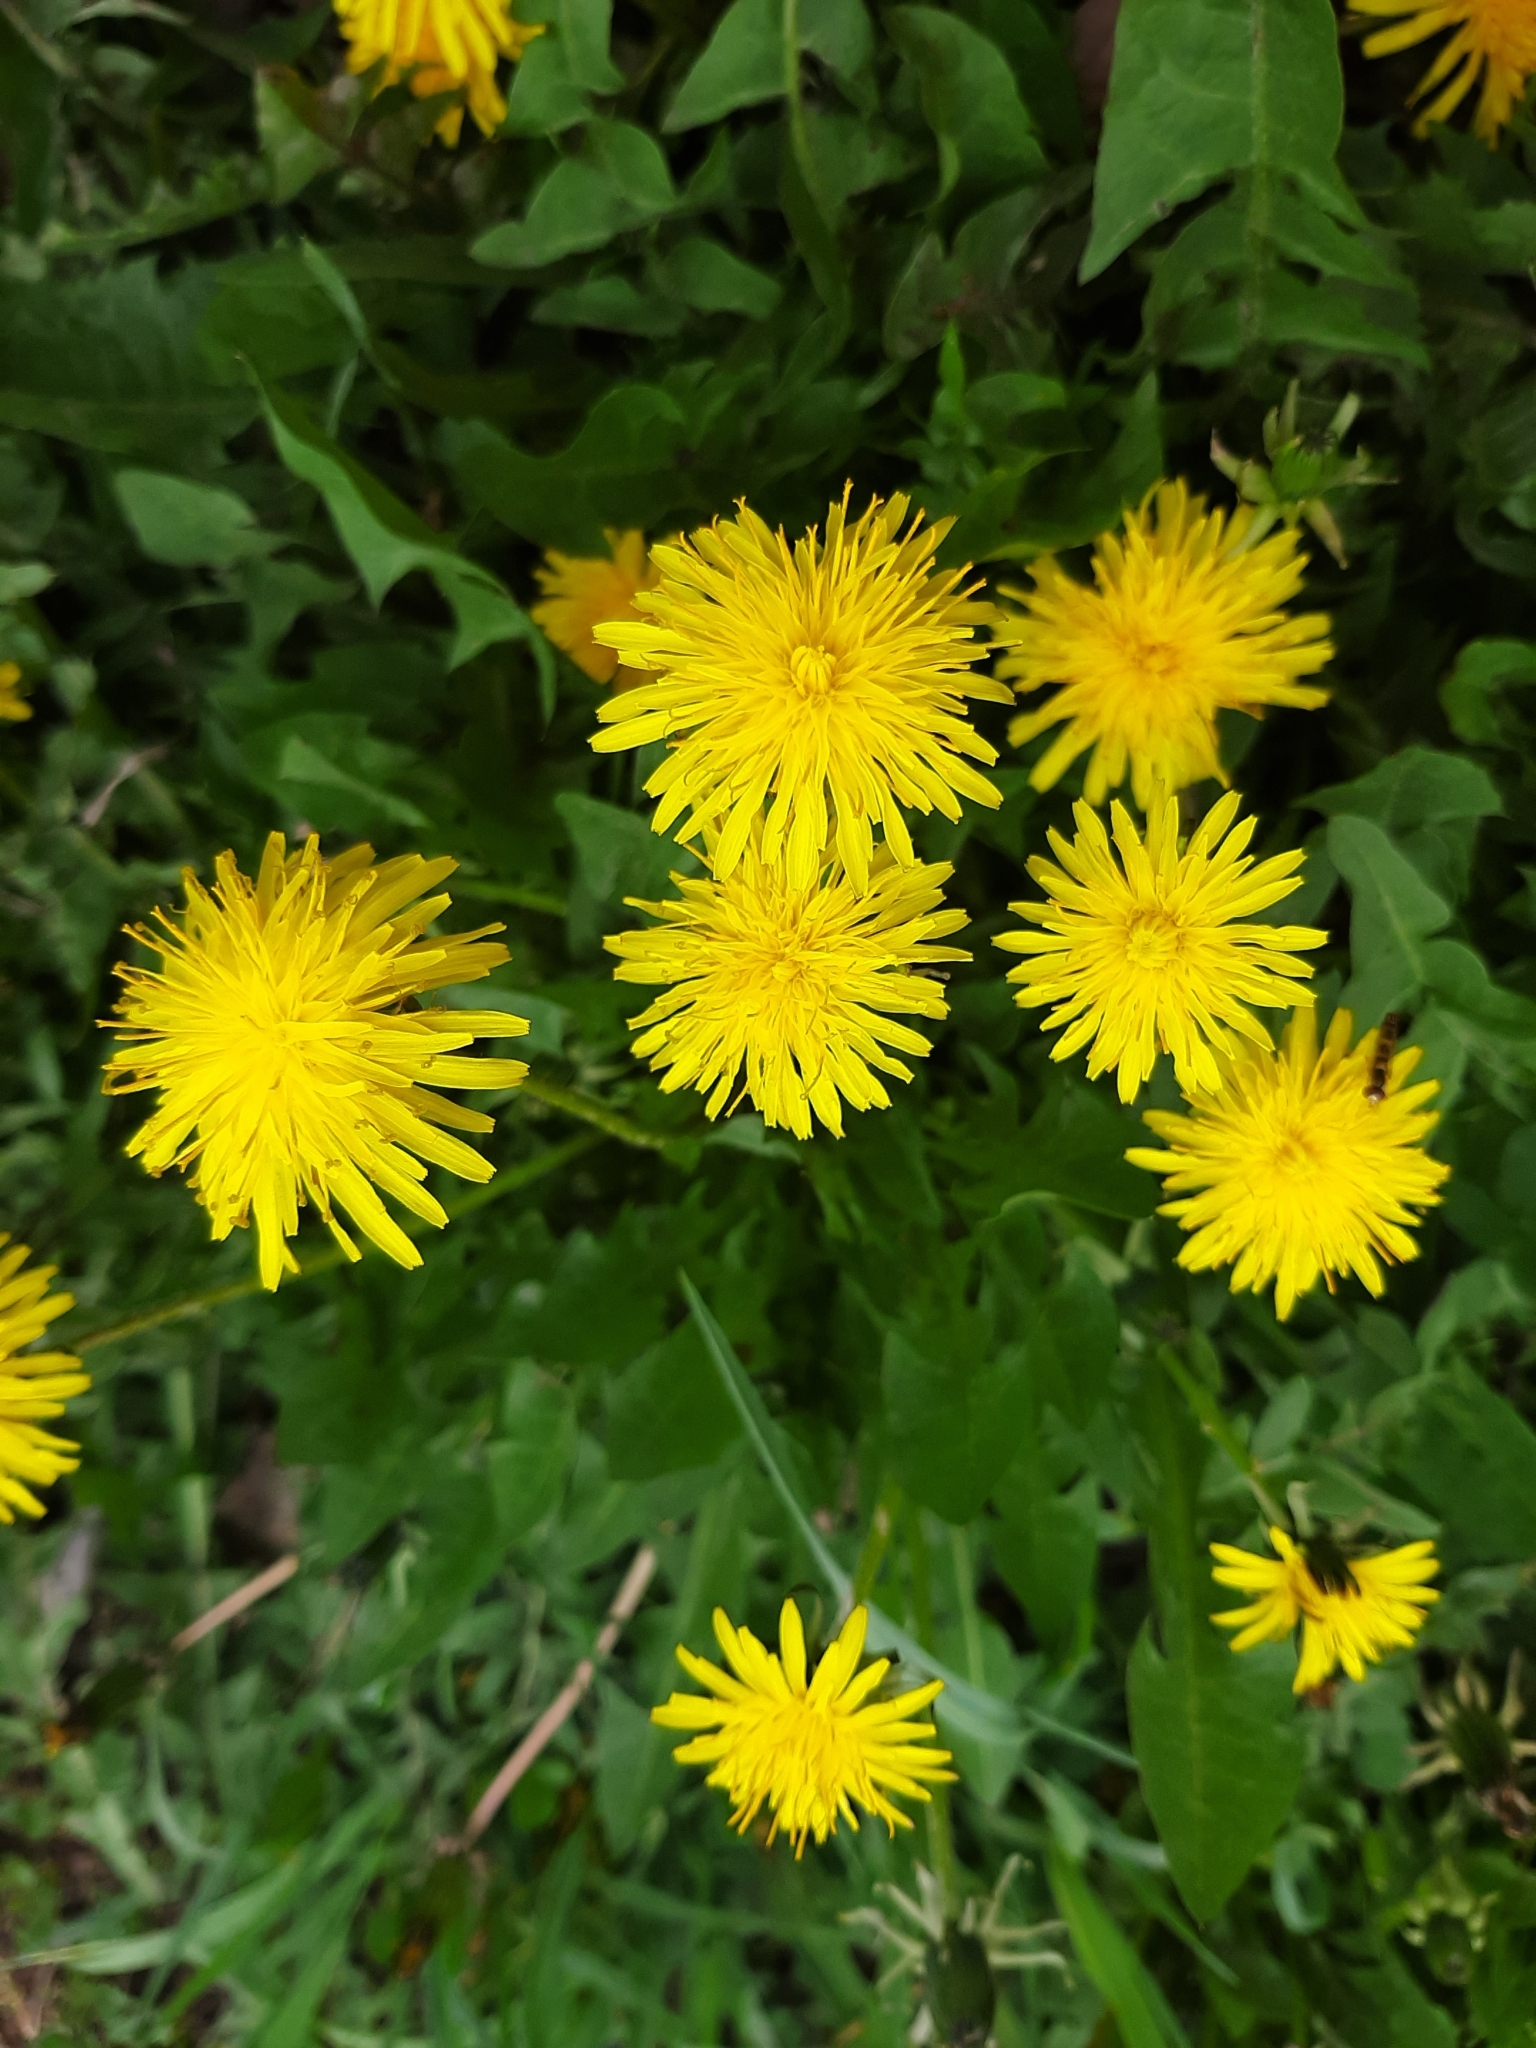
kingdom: Plantae
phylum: Tracheophyta
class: Magnoliopsida
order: Asterales
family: Asteraceae
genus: Taraxacum
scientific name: Taraxacum officinale
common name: Common dandelion
